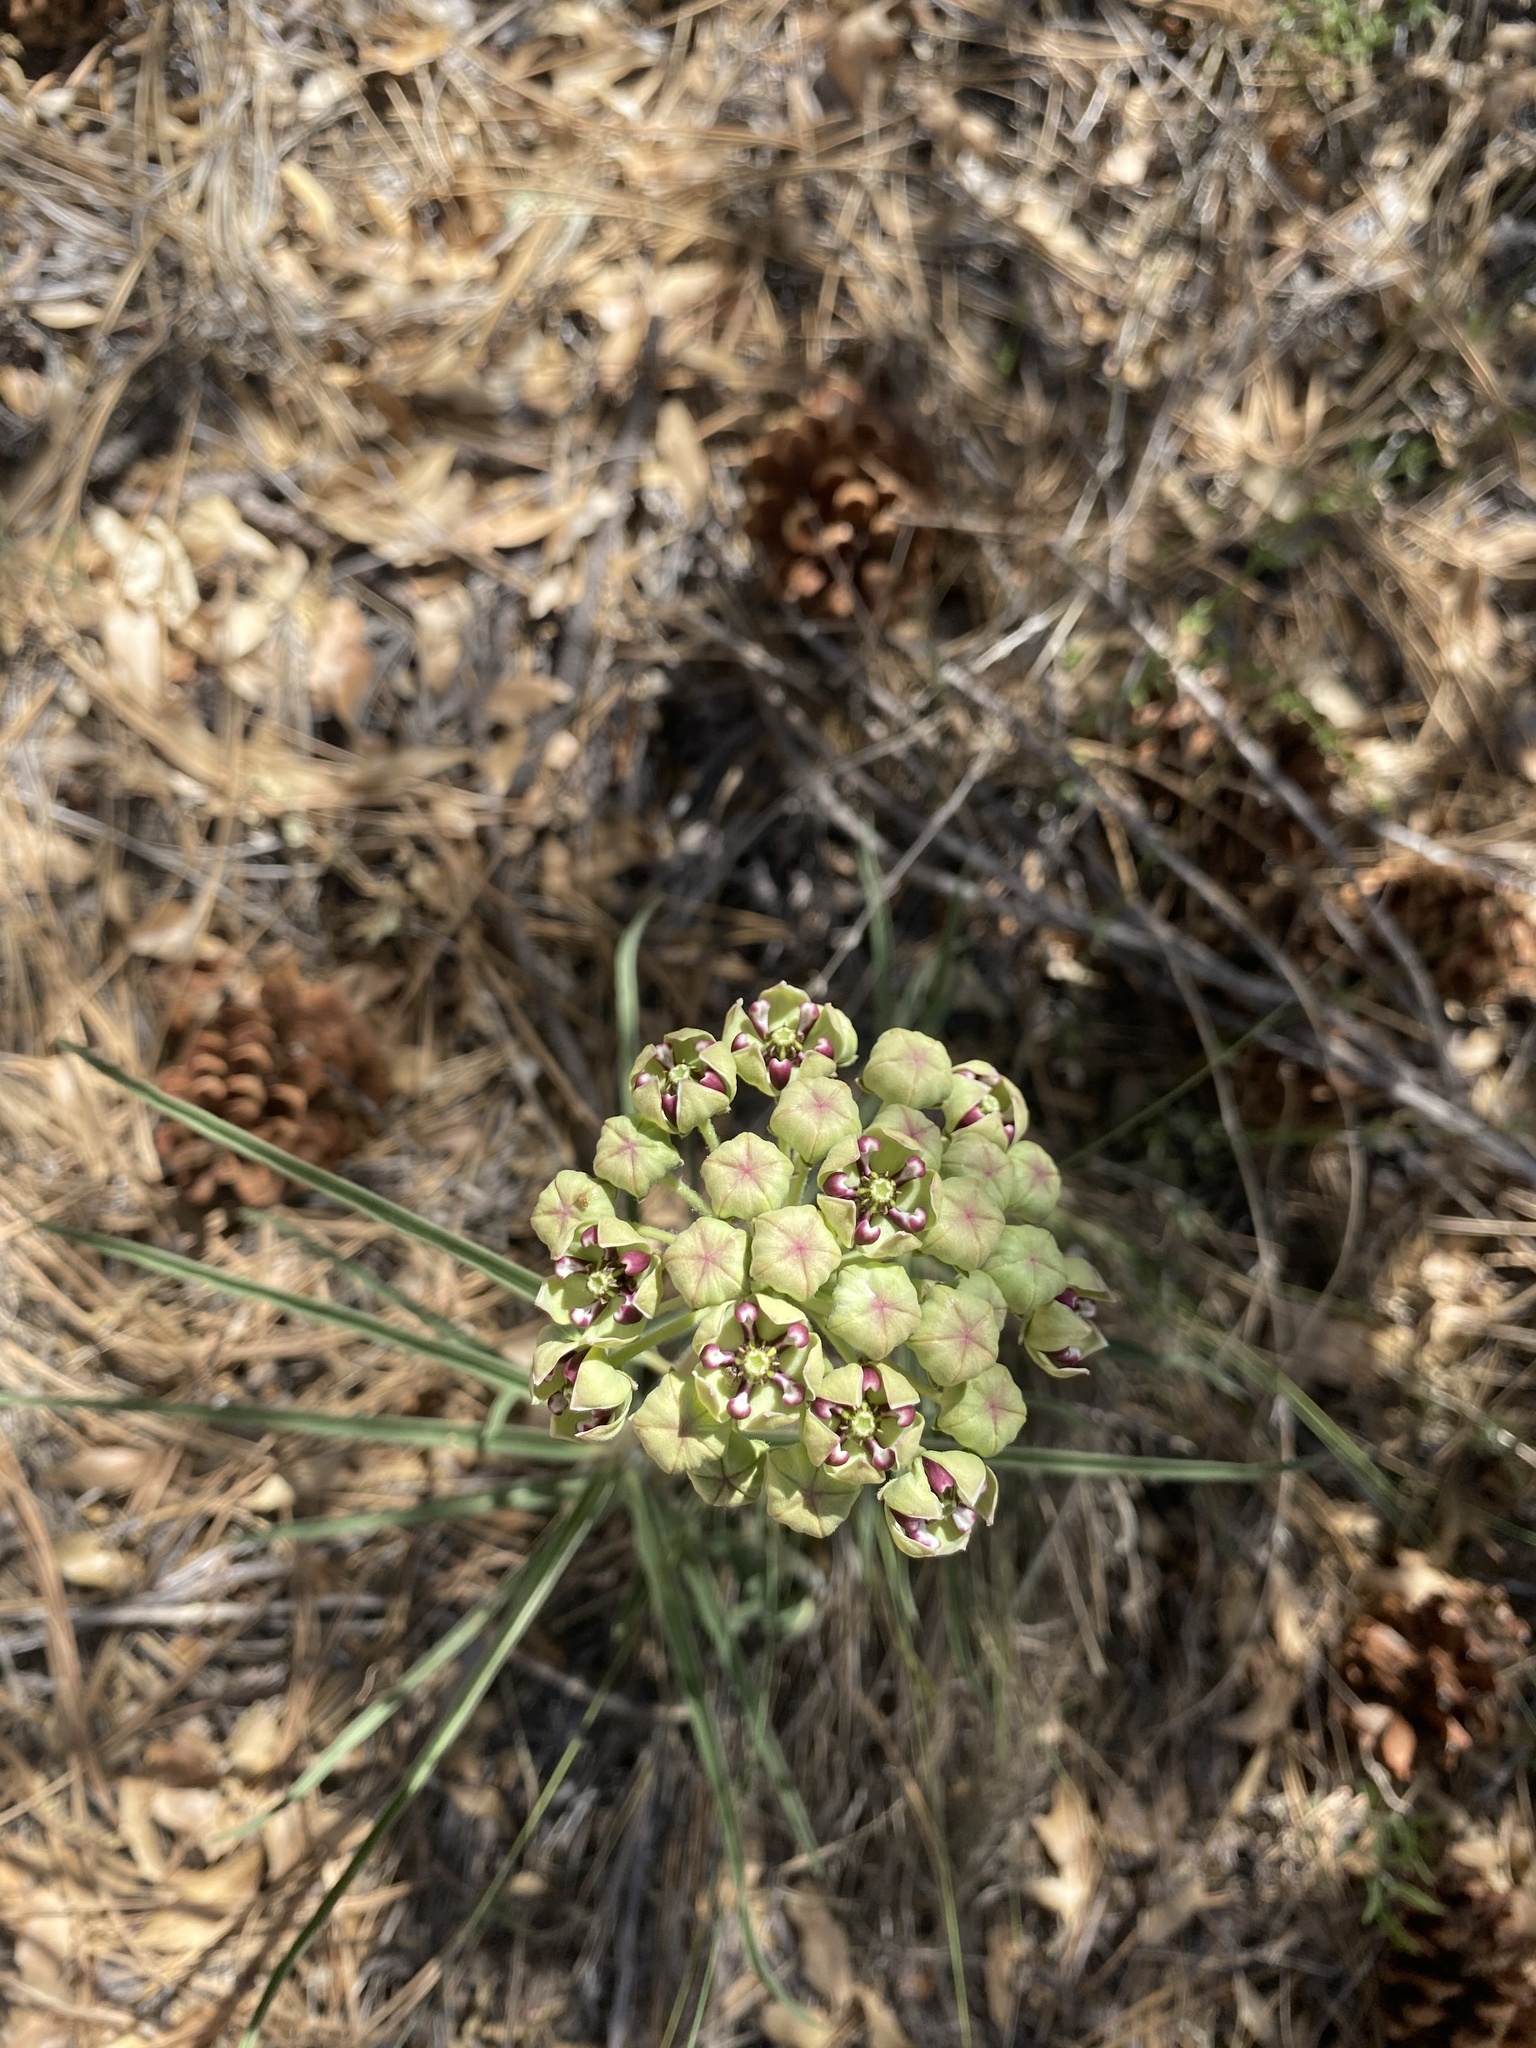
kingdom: Plantae
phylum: Tracheophyta
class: Magnoliopsida
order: Gentianales
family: Apocynaceae
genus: Asclepias
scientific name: Asclepias asperula
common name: Antelope horns
